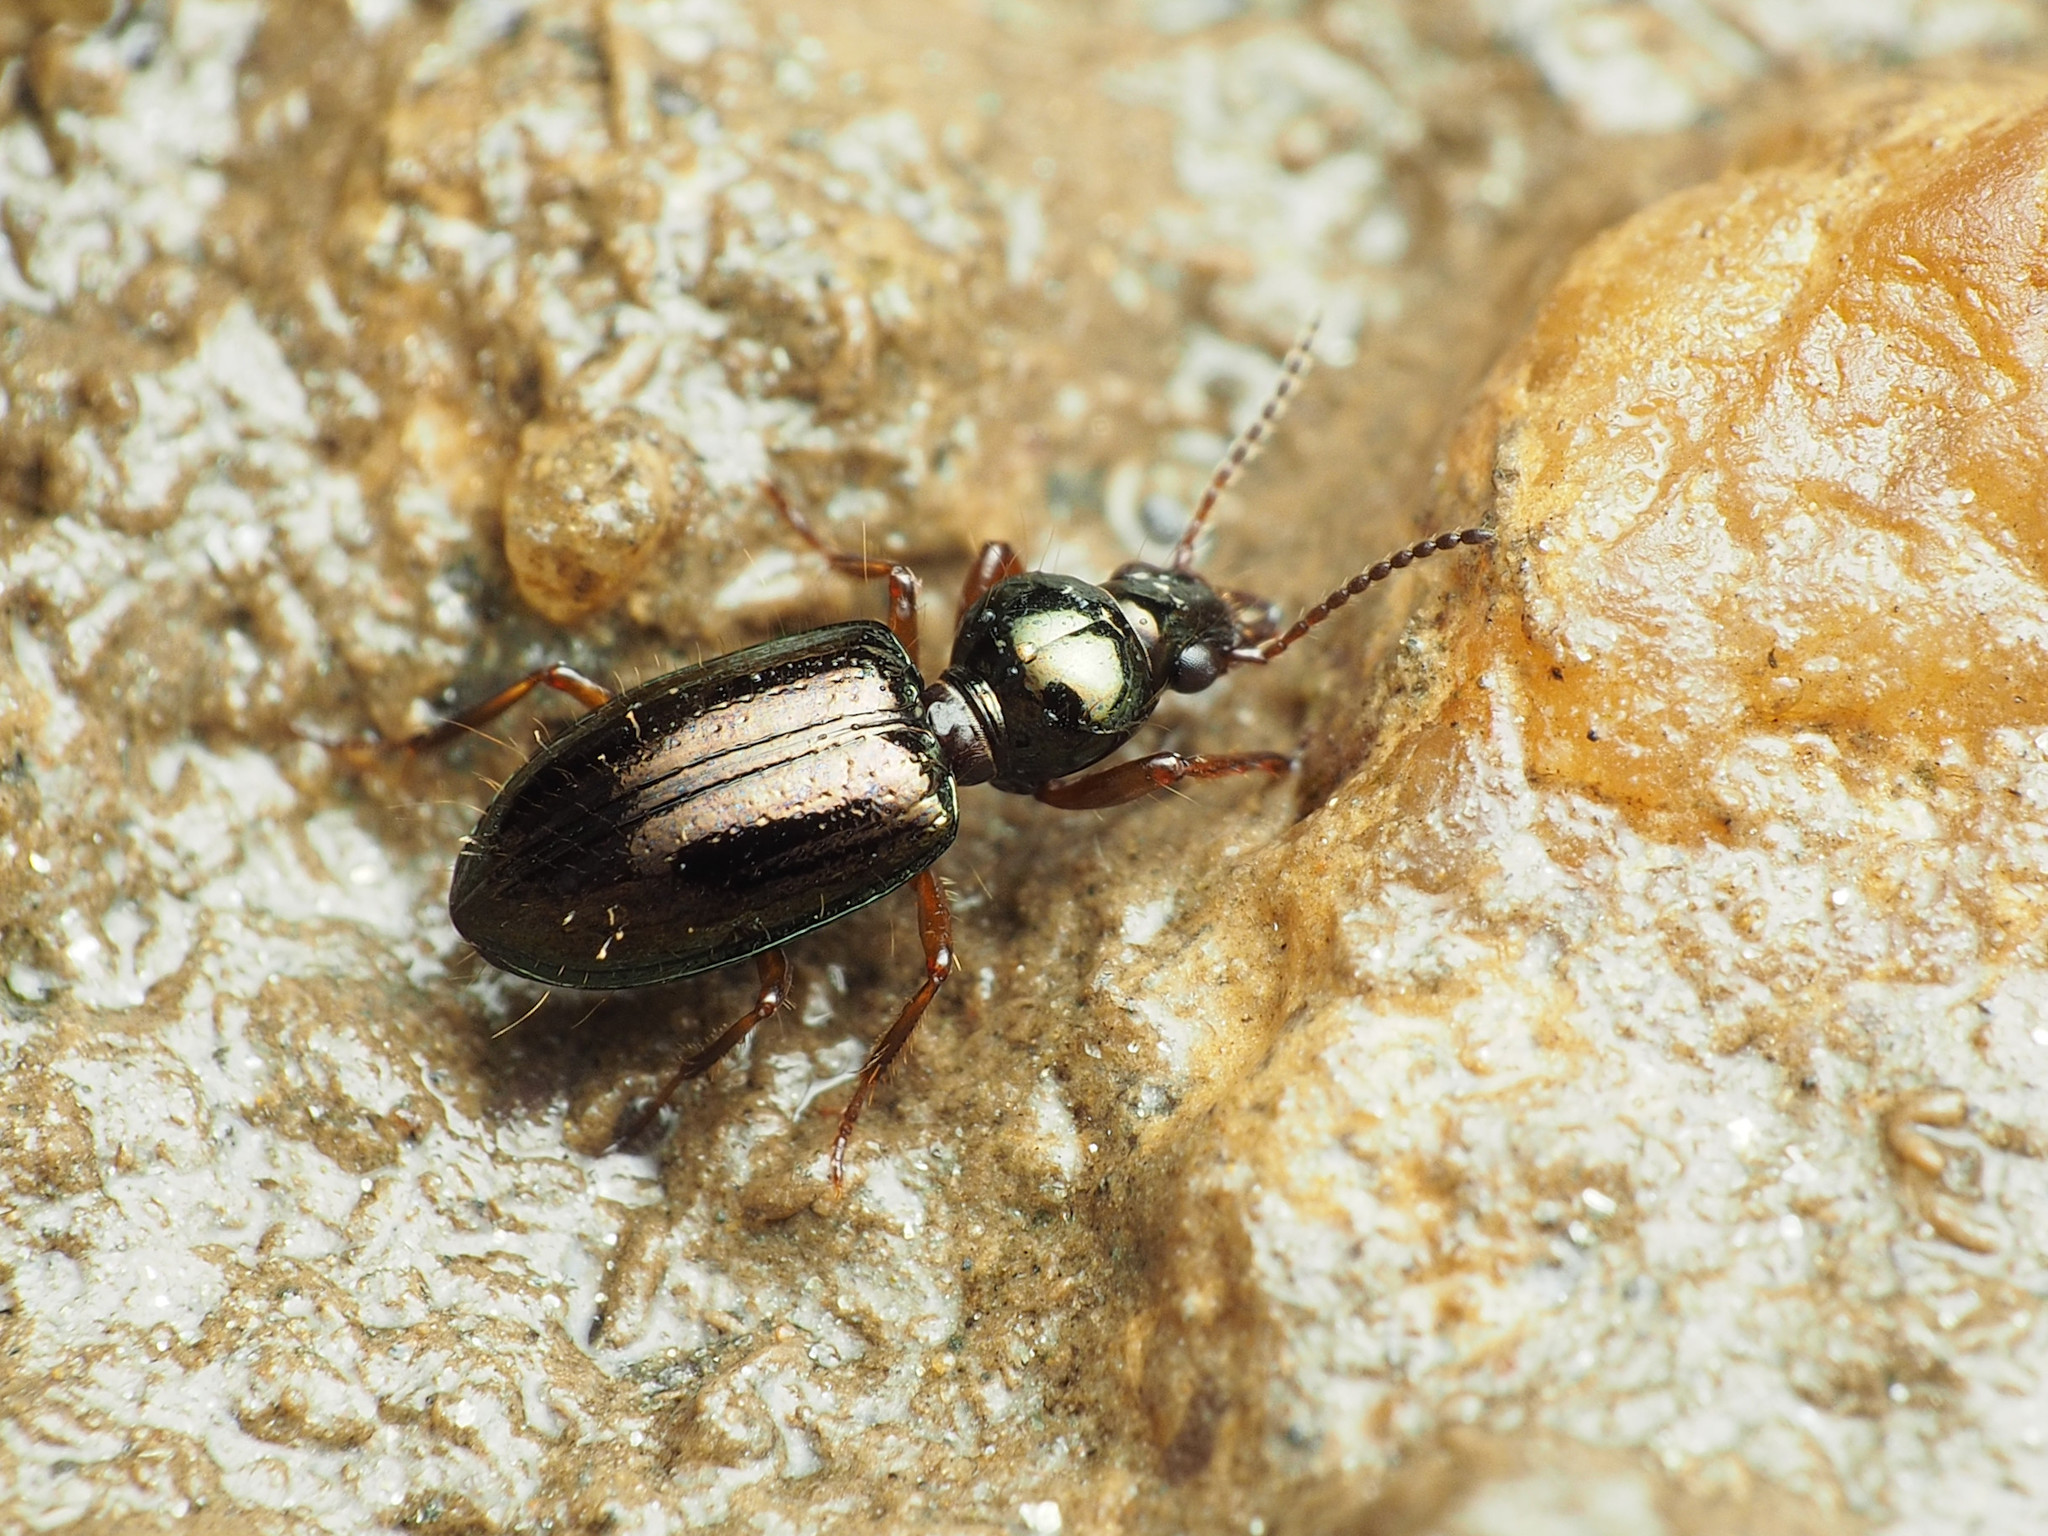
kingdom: Animalia
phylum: Arthropoda
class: Insecta
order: Coleoptera
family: Carabidae
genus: Semiardistomis
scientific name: Semiardistomis viridis
